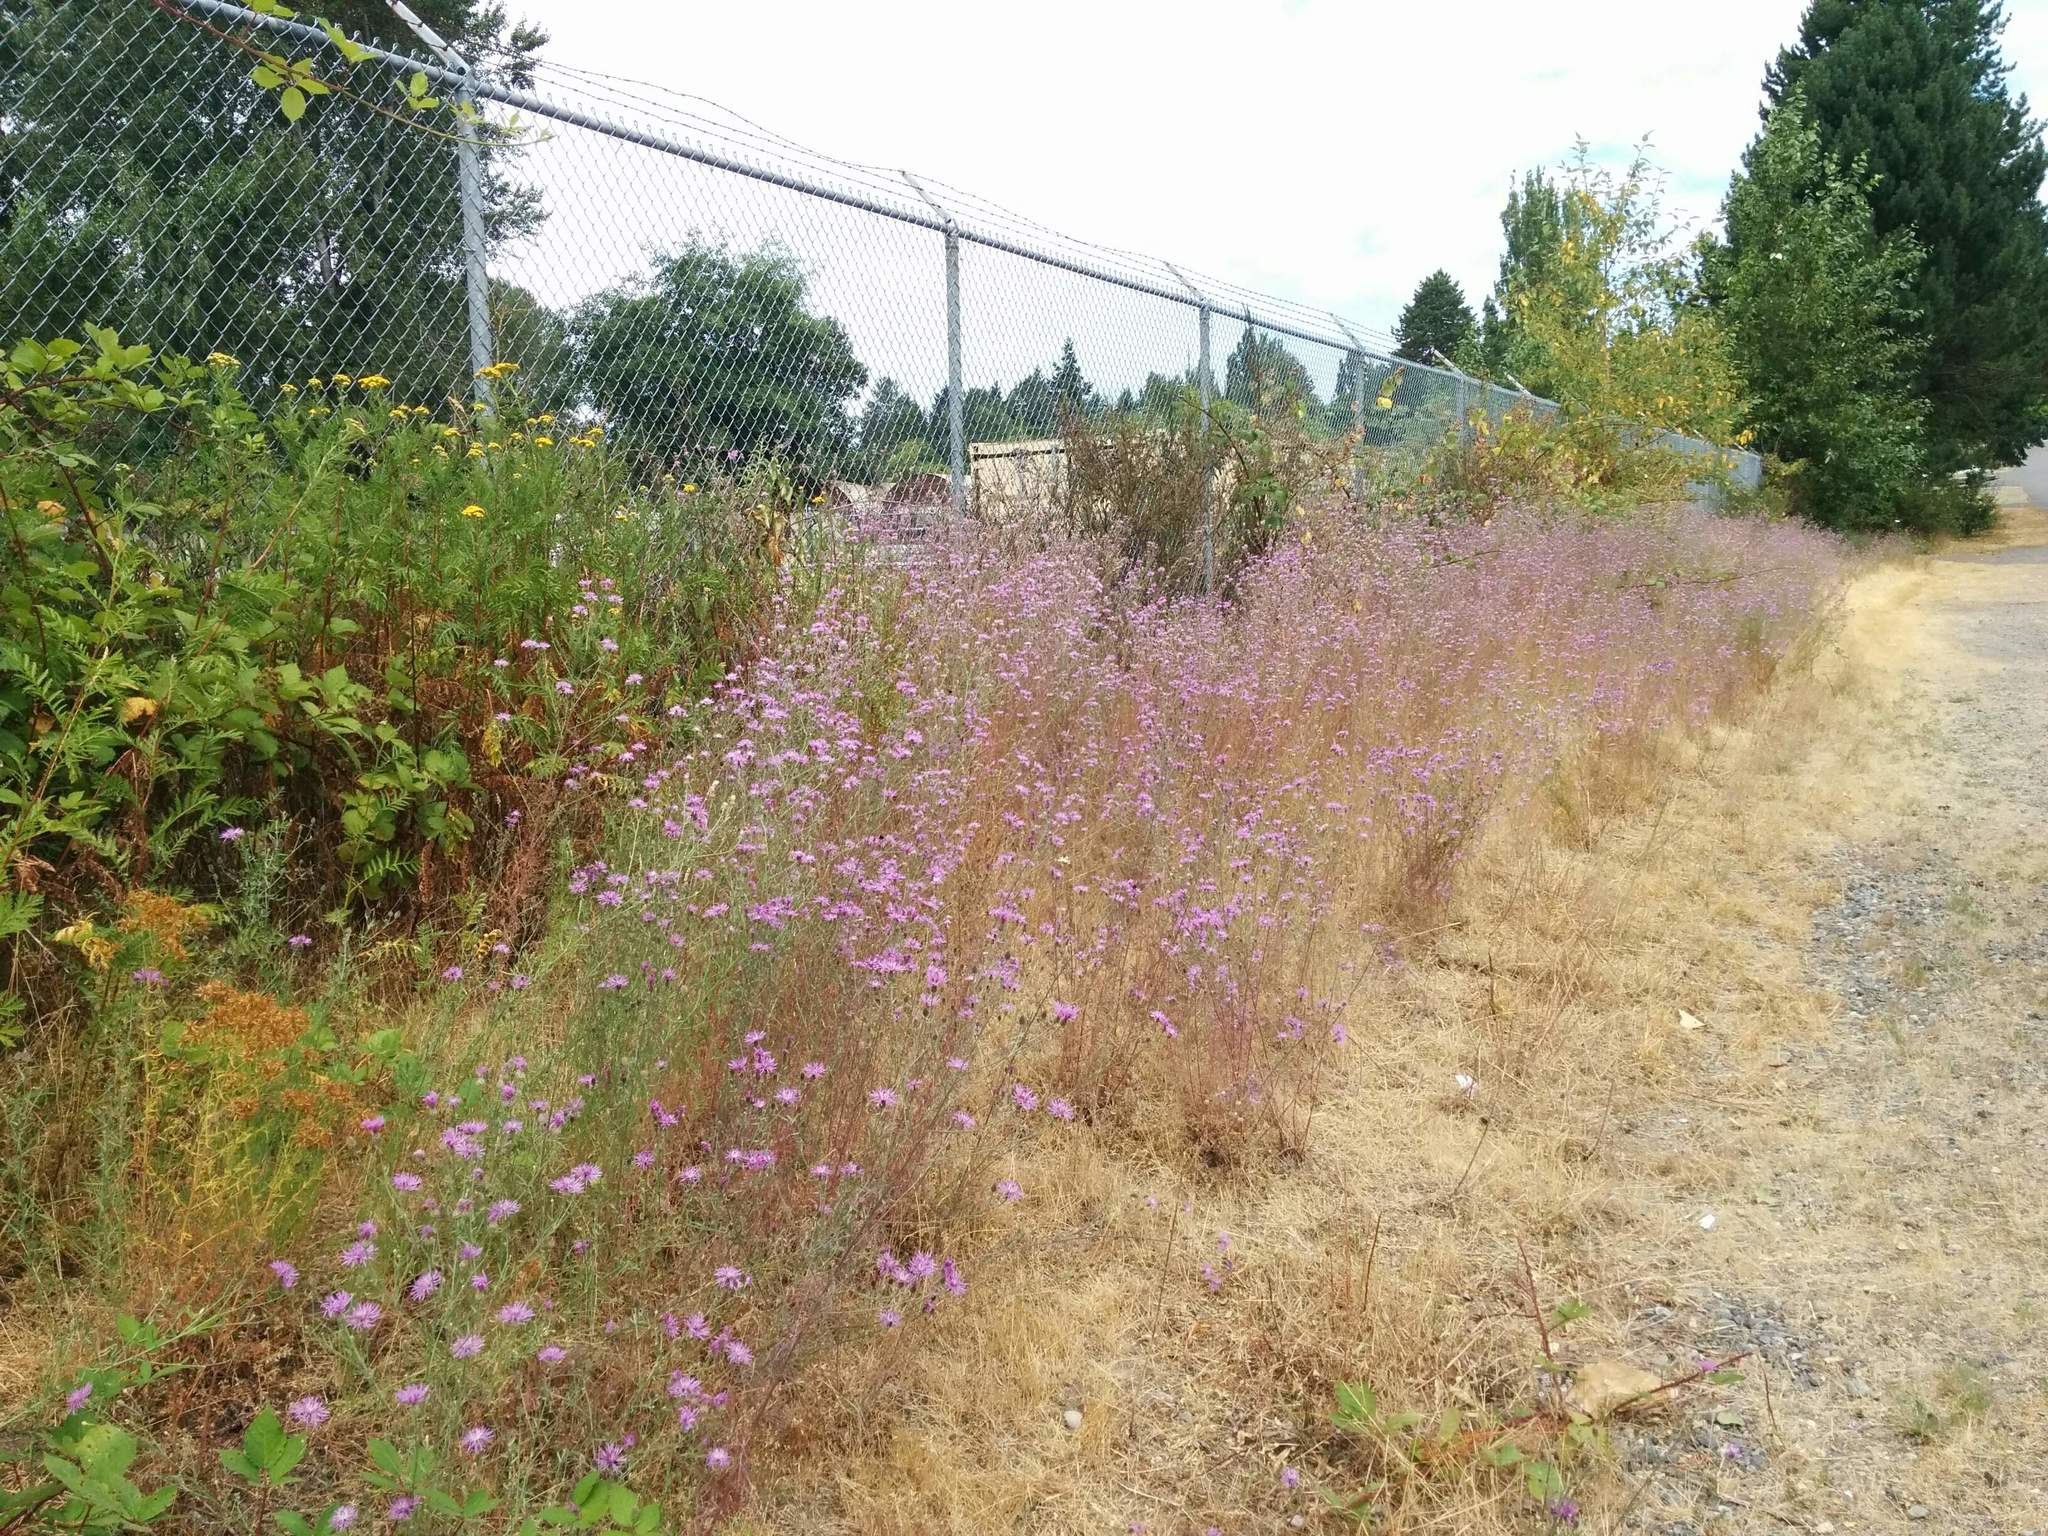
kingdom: Plantae
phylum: Tracheophyta
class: Magnoliopsida
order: Asterales
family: Asteraceae
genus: Centaurea
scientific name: Centaurea stoebe
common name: Spotted knapweed
